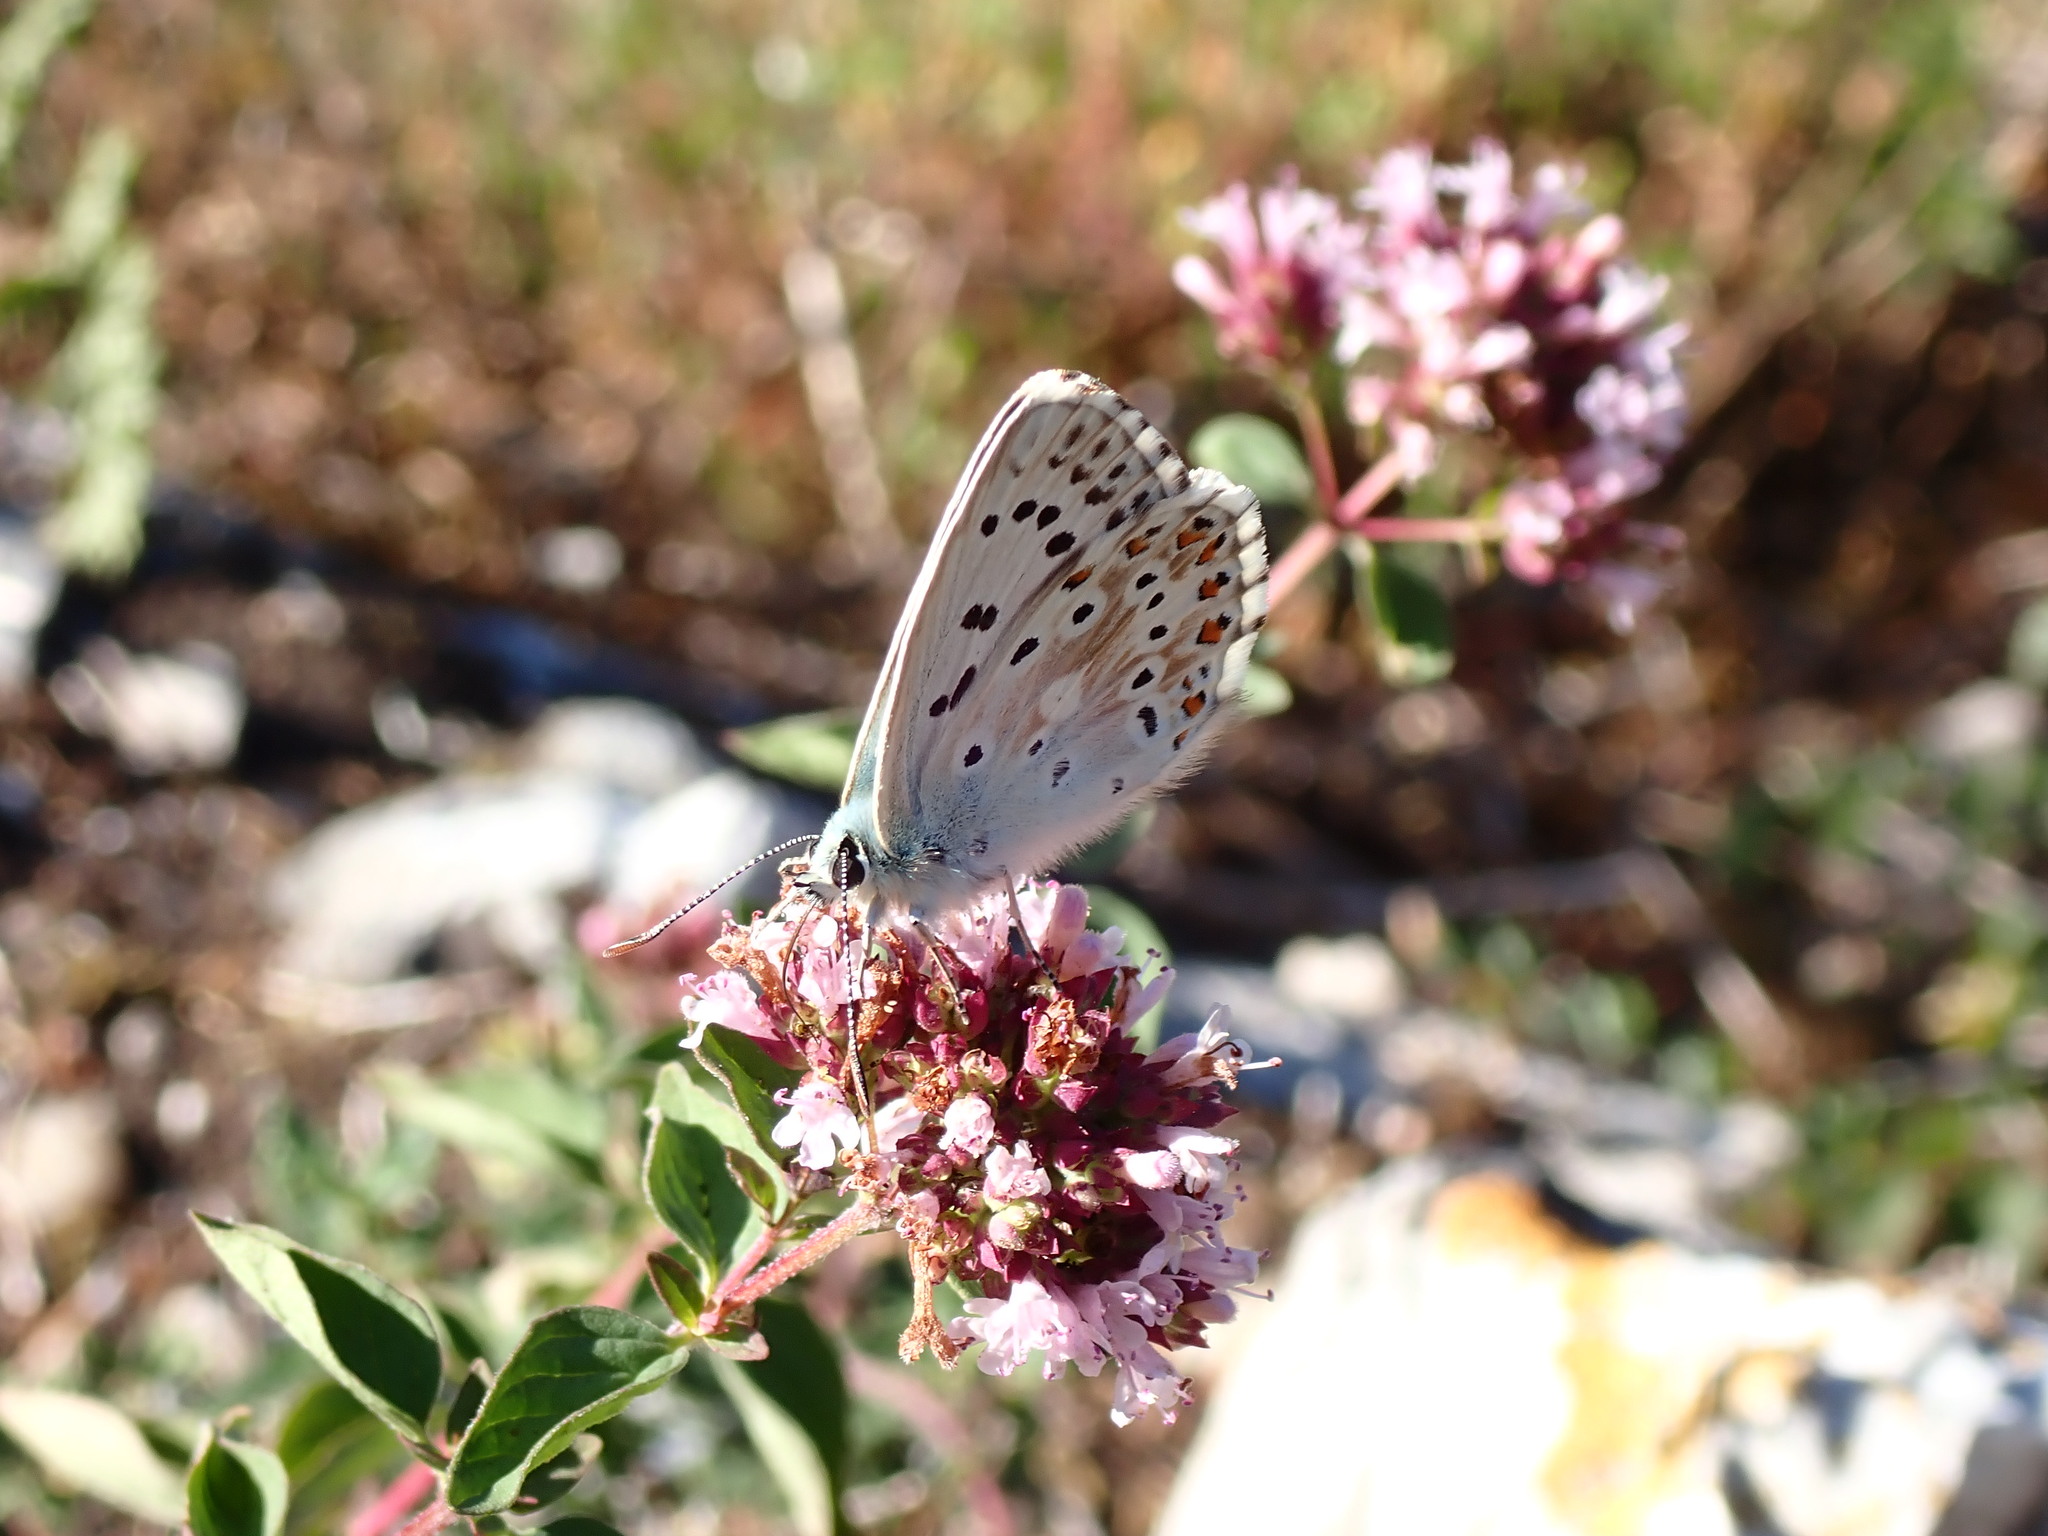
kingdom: Animalia
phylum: Arthropoda
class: Insecta
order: Lepidoptera
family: Lycaenidae
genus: Lysandra
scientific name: Lysandra coridon
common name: Chalkhill blue
